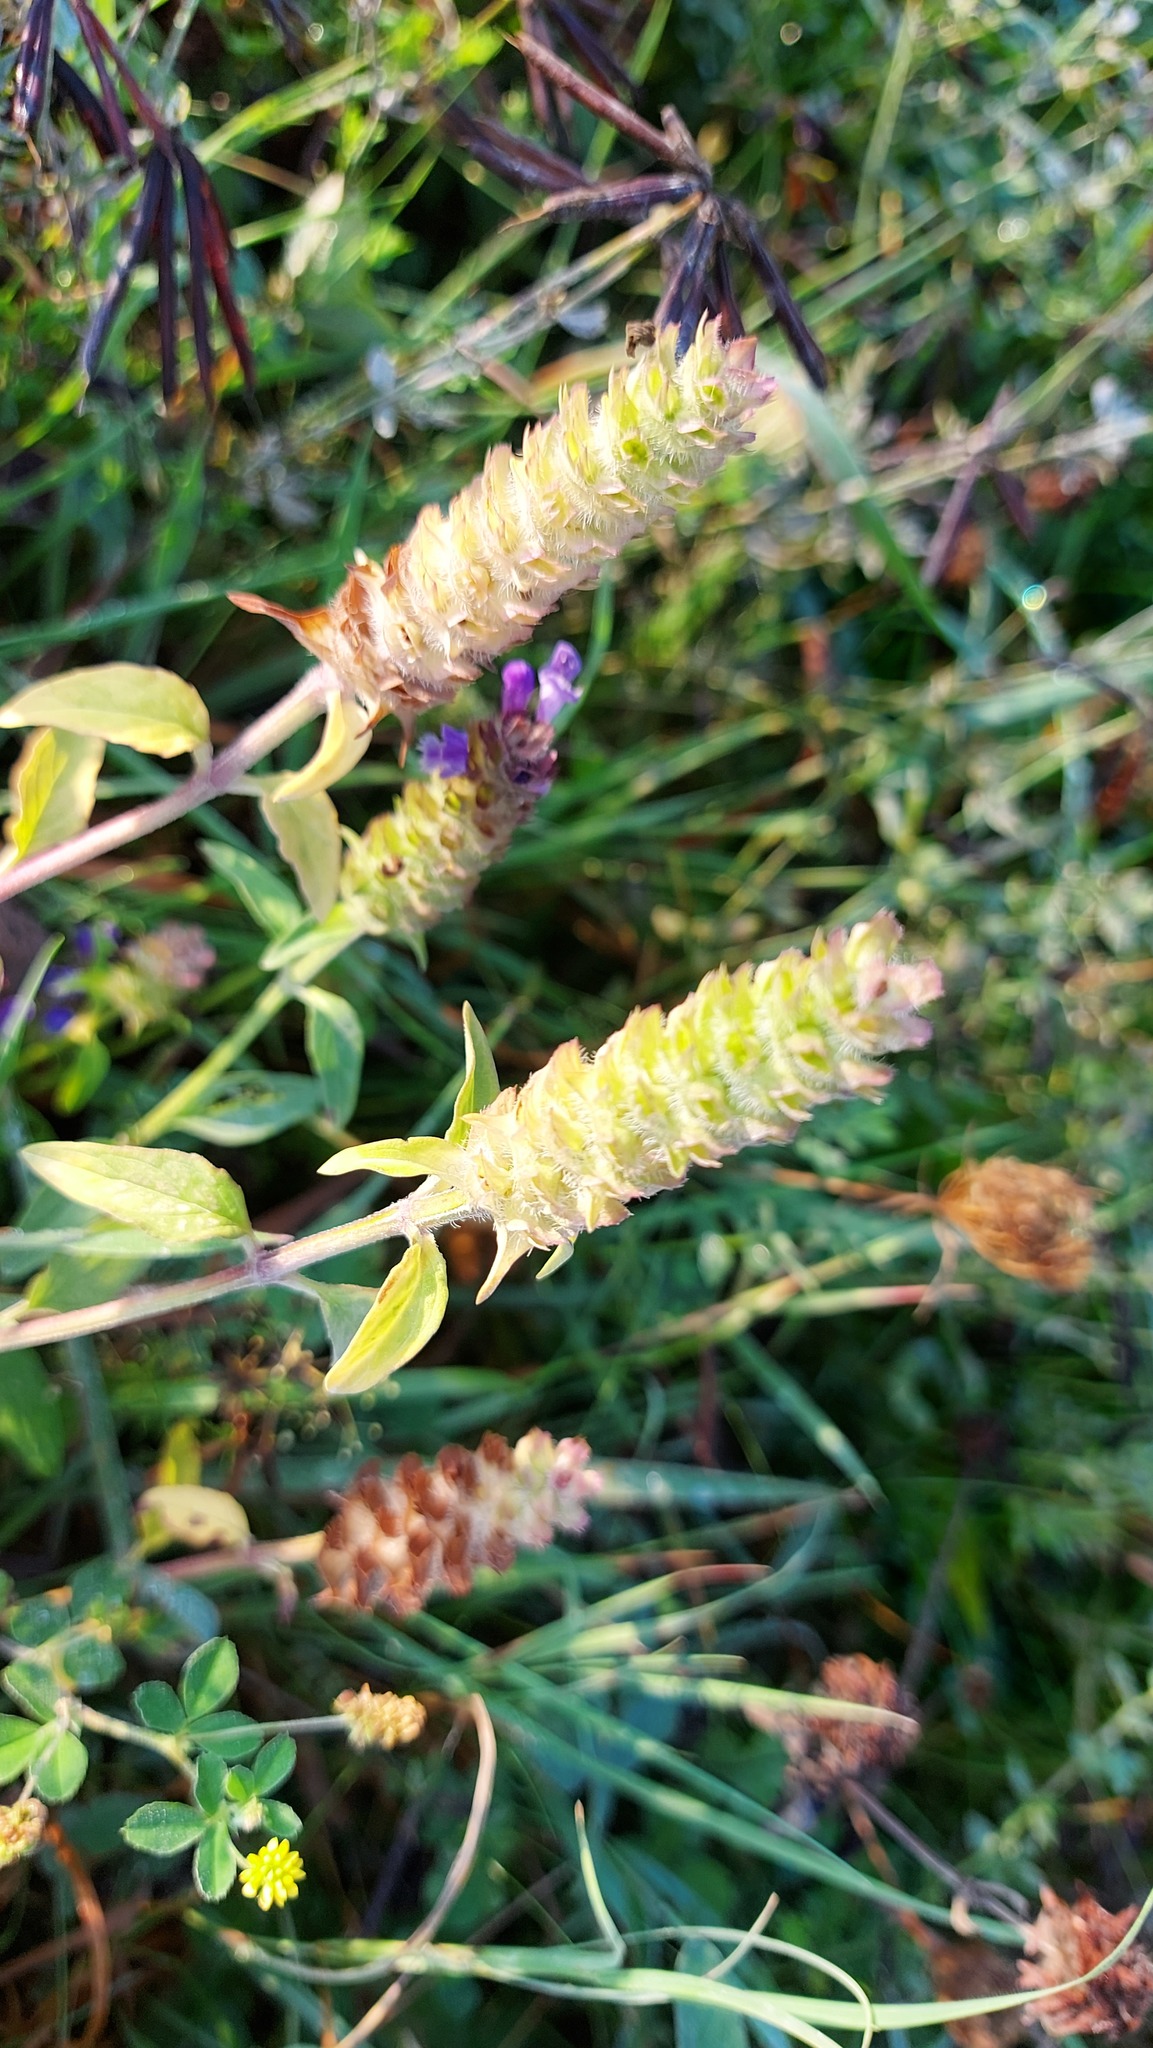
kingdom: Plantae
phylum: Tracheophyta
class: Magnoliopsida
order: Lamiales
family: Lamiaceae
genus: Prunella
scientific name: Prunella vulgaris
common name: Heal-all
